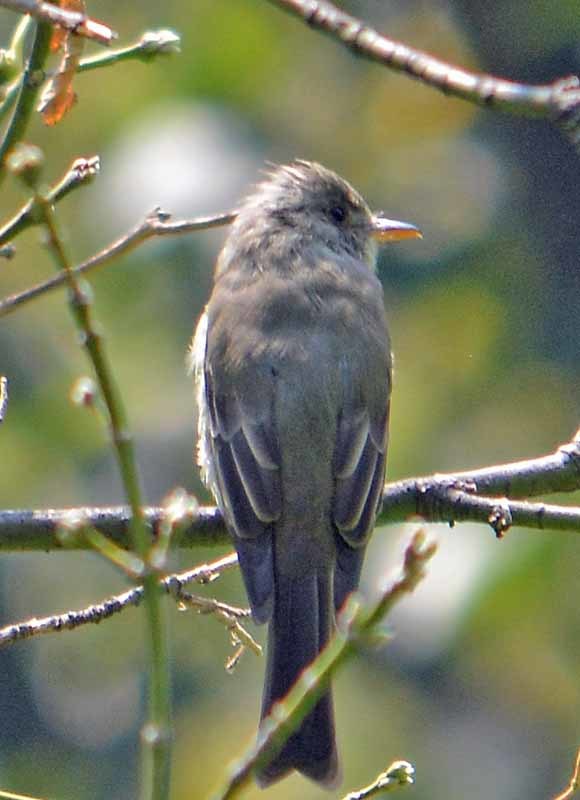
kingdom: Animalia
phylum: Chordata
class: Aves
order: Passeriformes
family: Tyrannidae
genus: Contopus
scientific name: Contopus pertinax
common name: Greater pewee
